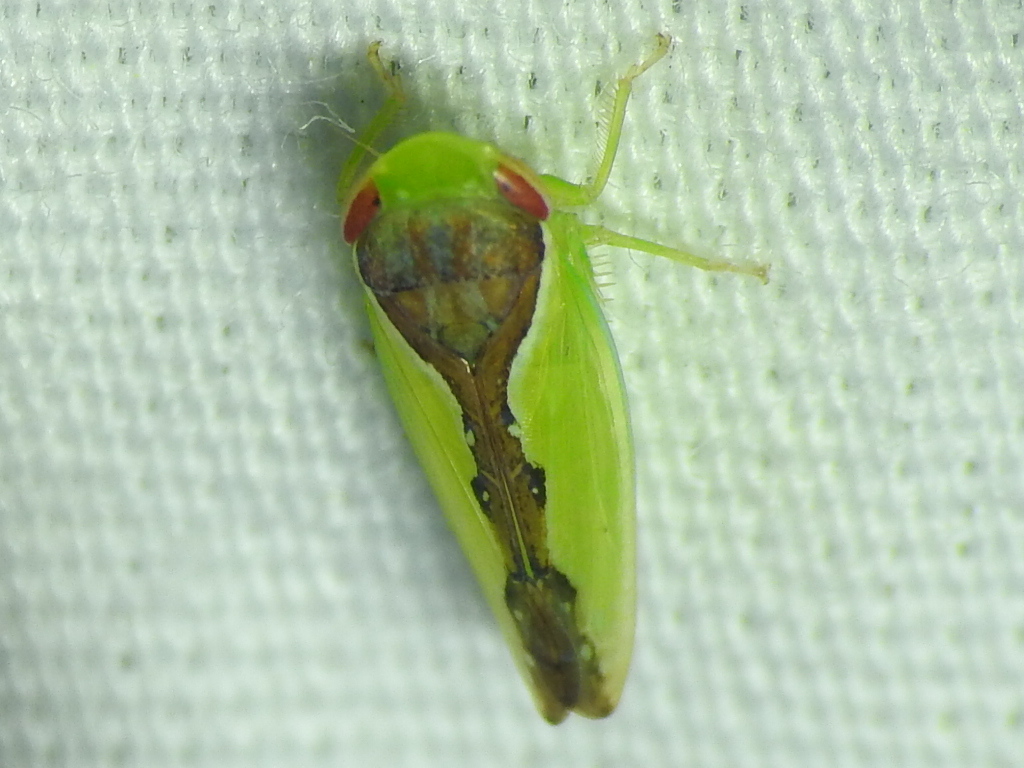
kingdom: Animalia
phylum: Arthropoda
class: Insecta
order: Hemiptera
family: Cicadellidae
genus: Omansobara ing
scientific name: Omansobara ing Omansobara palliolata
